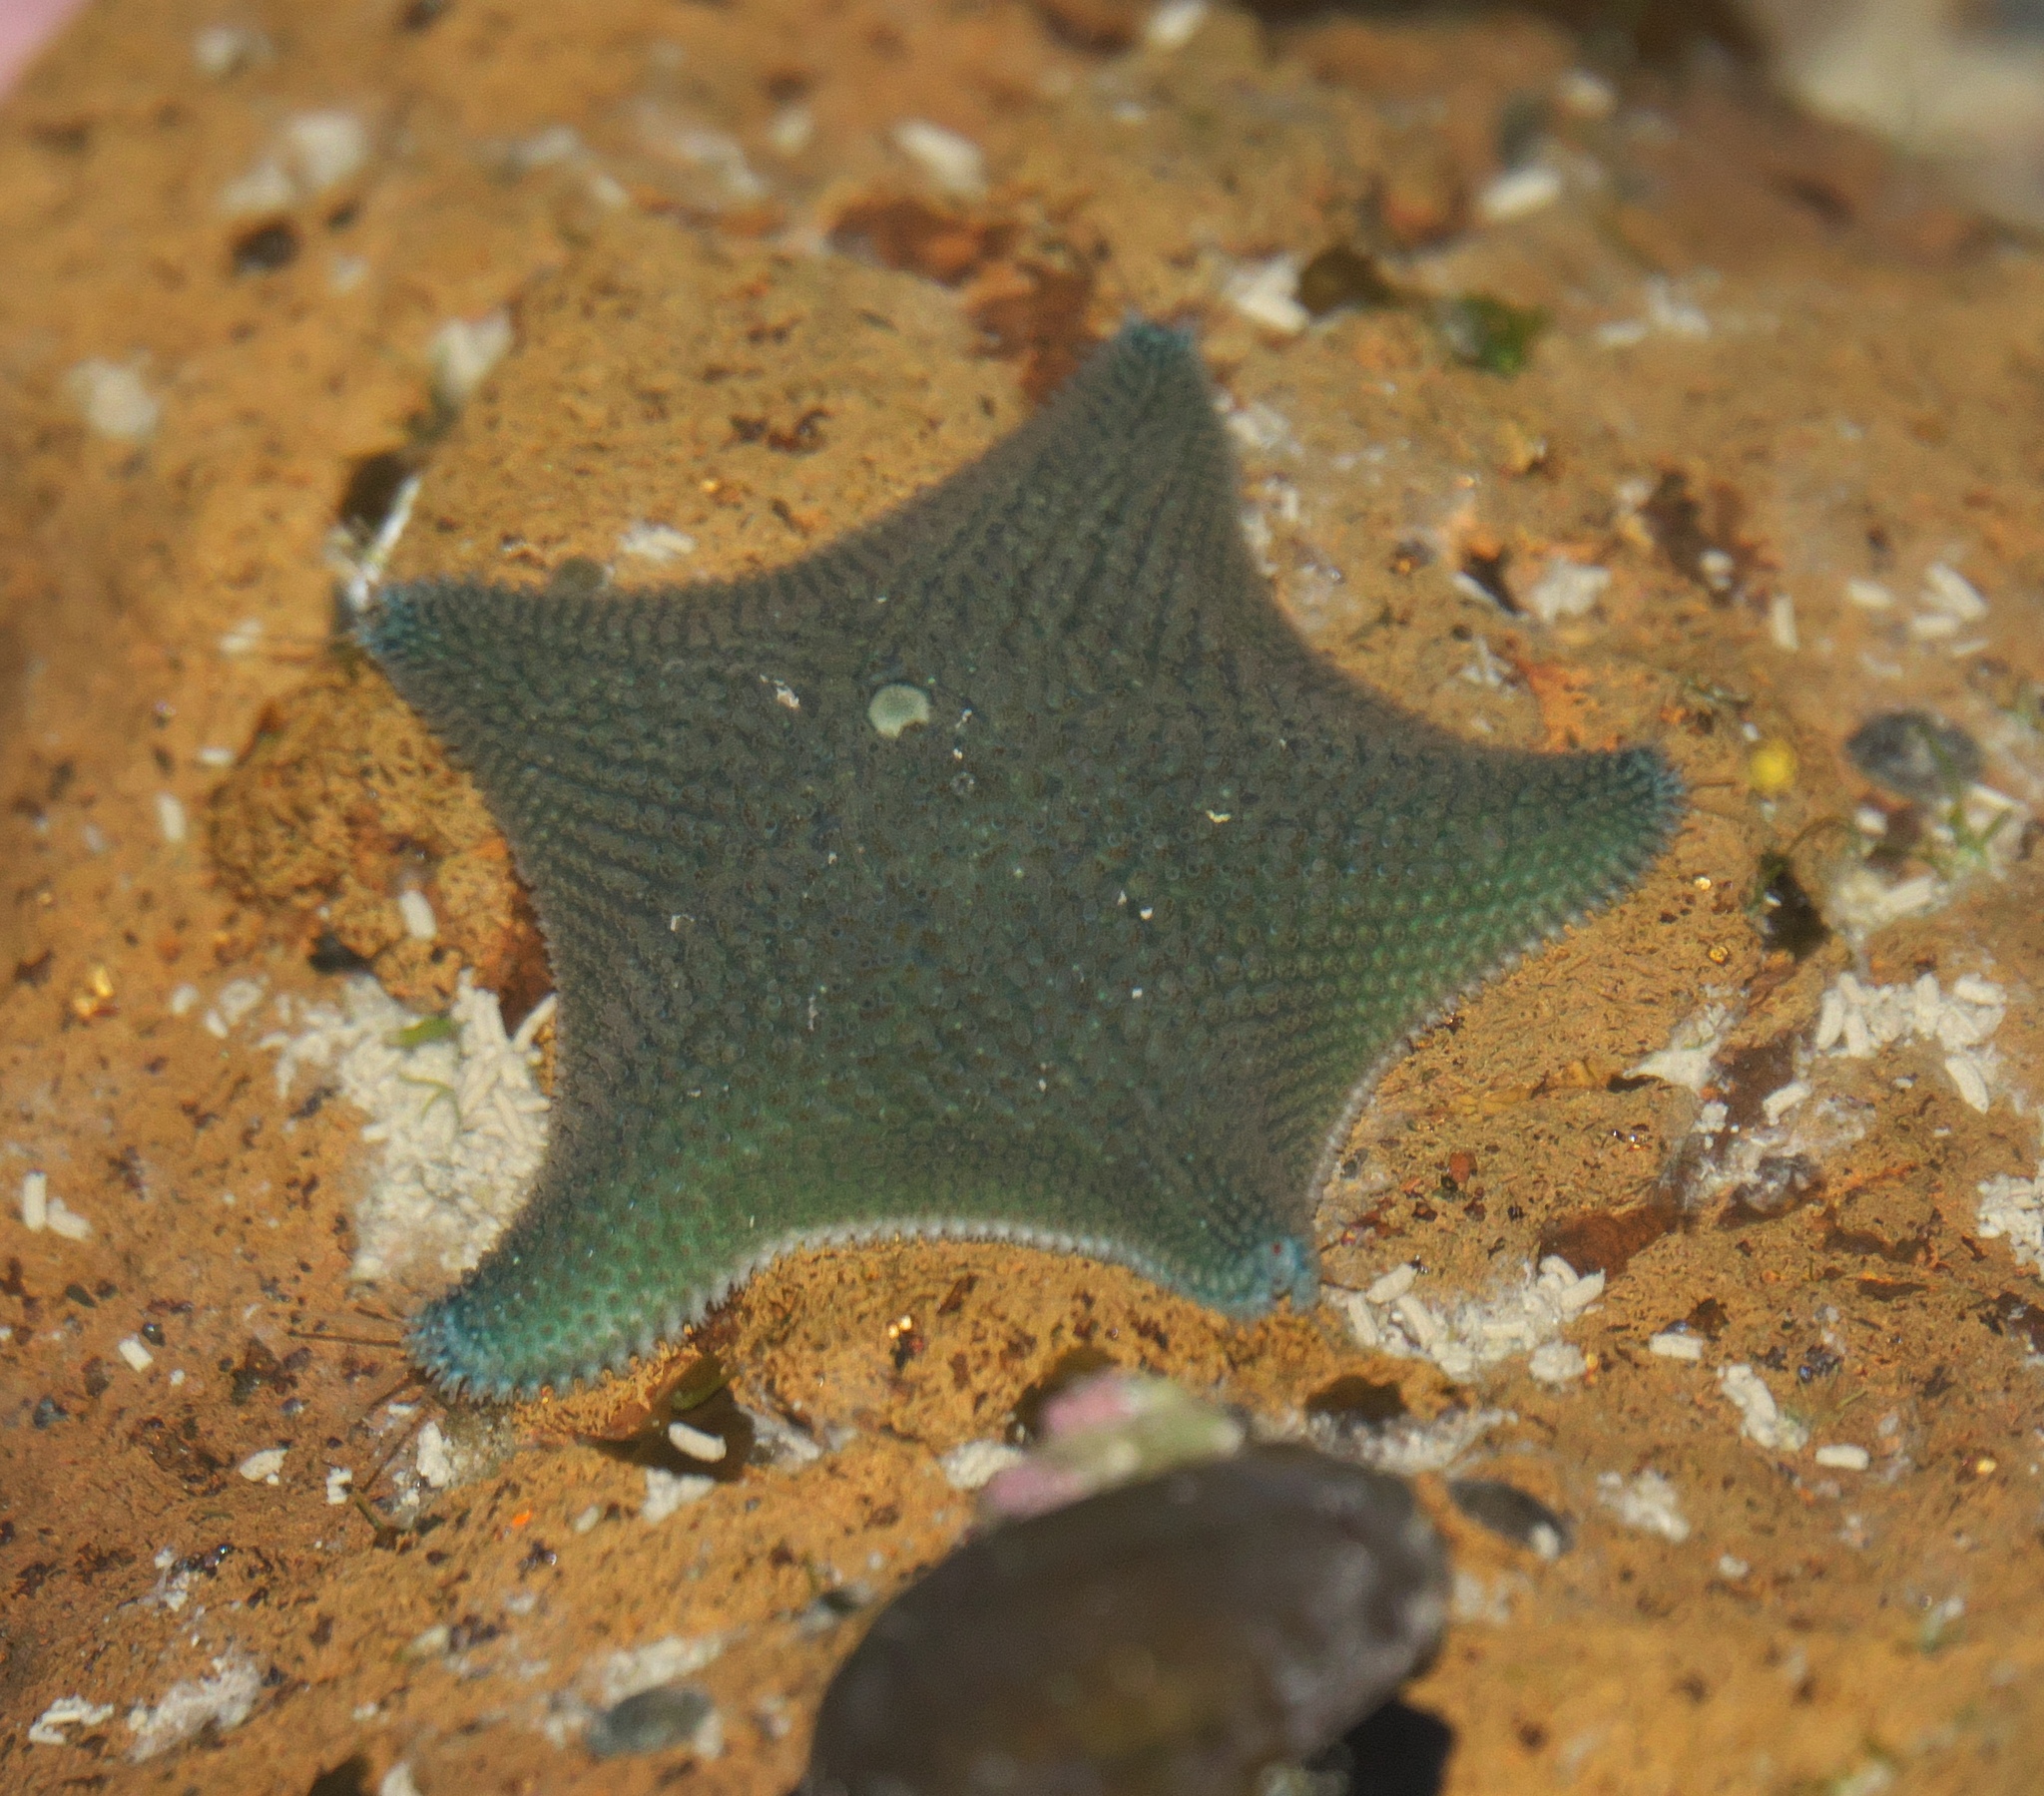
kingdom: Animalia
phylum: Echinodermata
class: Asteroidea
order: Valvatida
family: Asterinidae
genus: Patiriella
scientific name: Patiriella regularis
